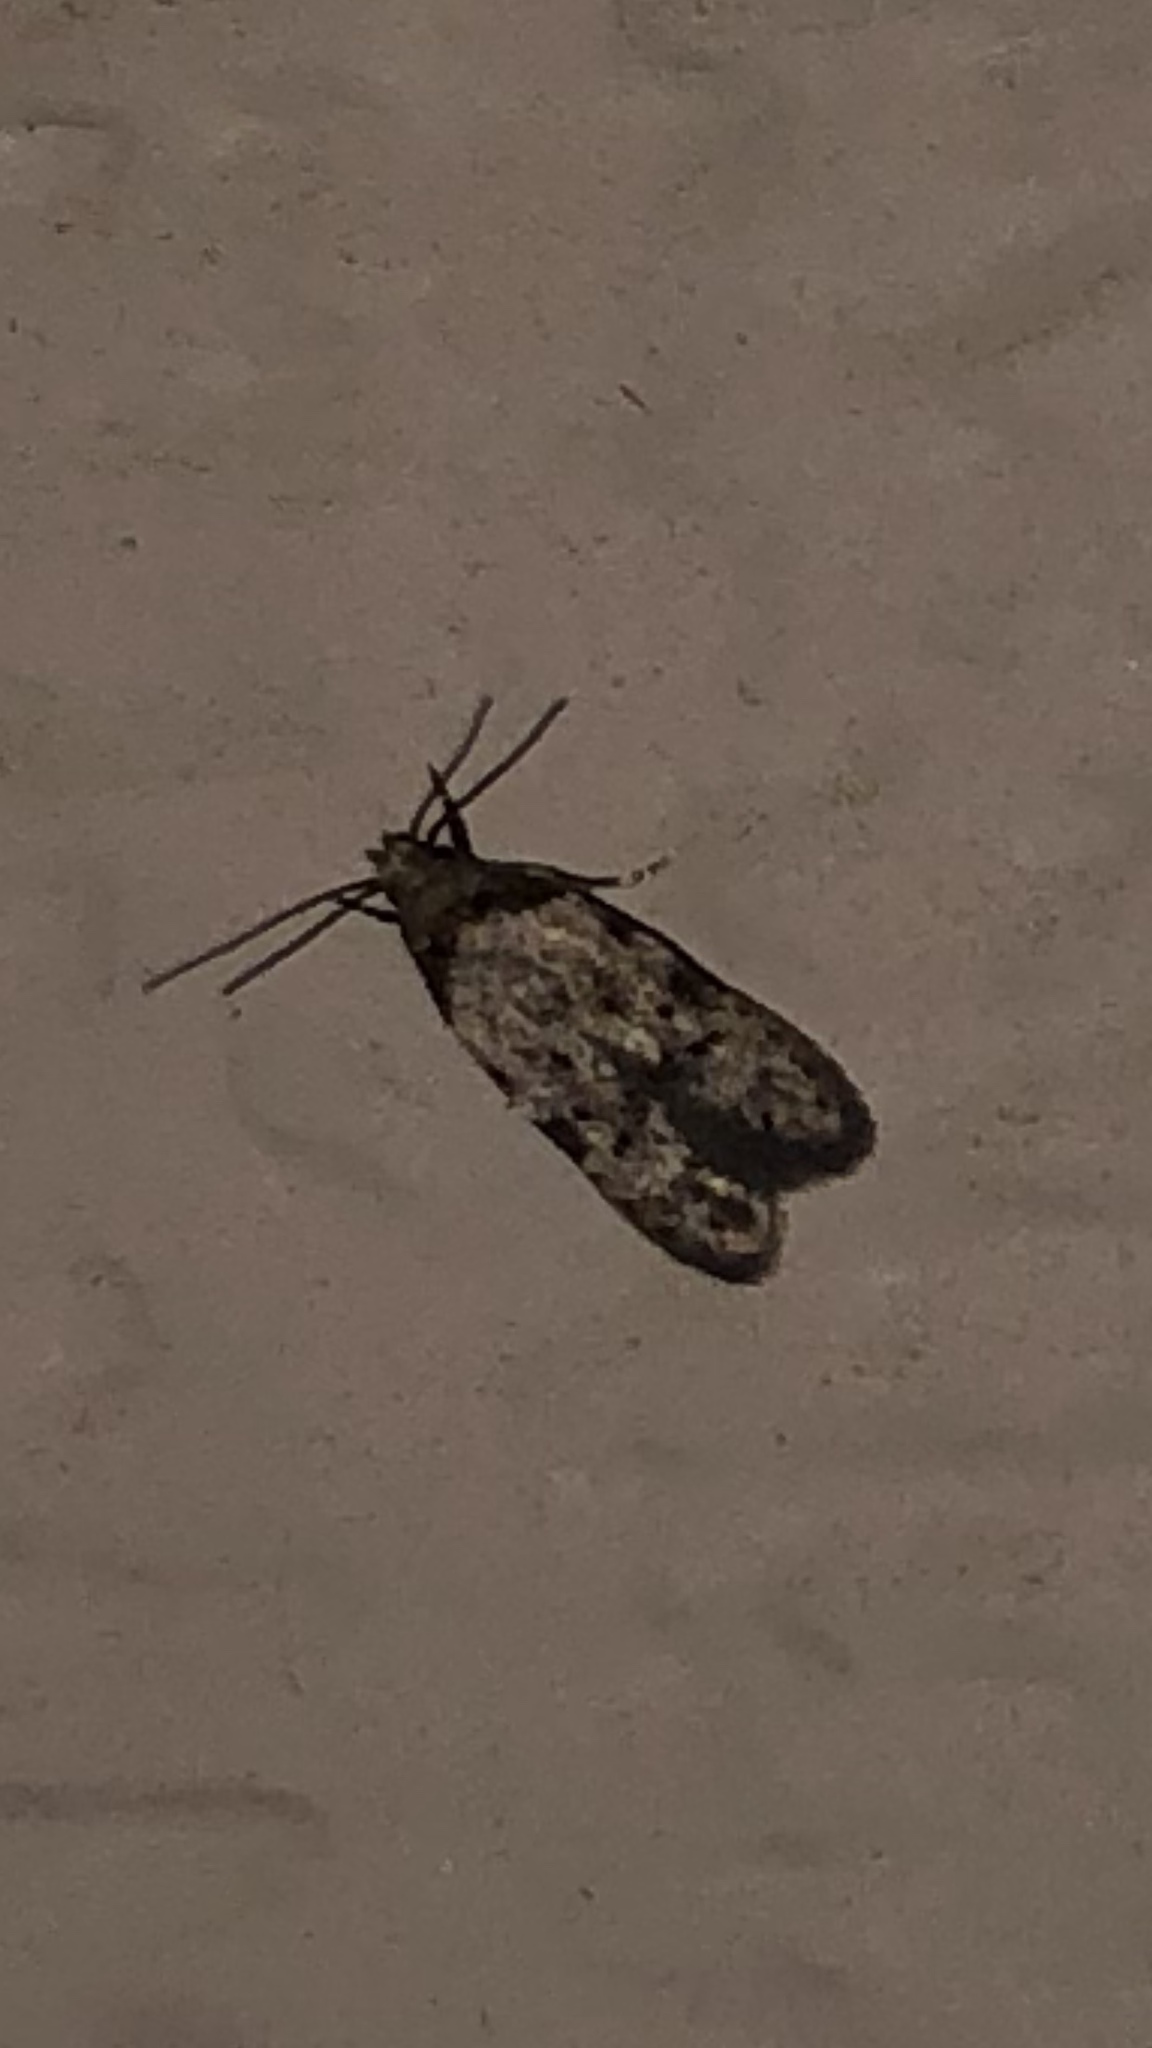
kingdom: Animalia
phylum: Arthropoda
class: Insecta
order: Lepidoptera
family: Autostichidae
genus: Taygete
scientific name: Taygete attributella
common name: Triangle-marked twirler moth
